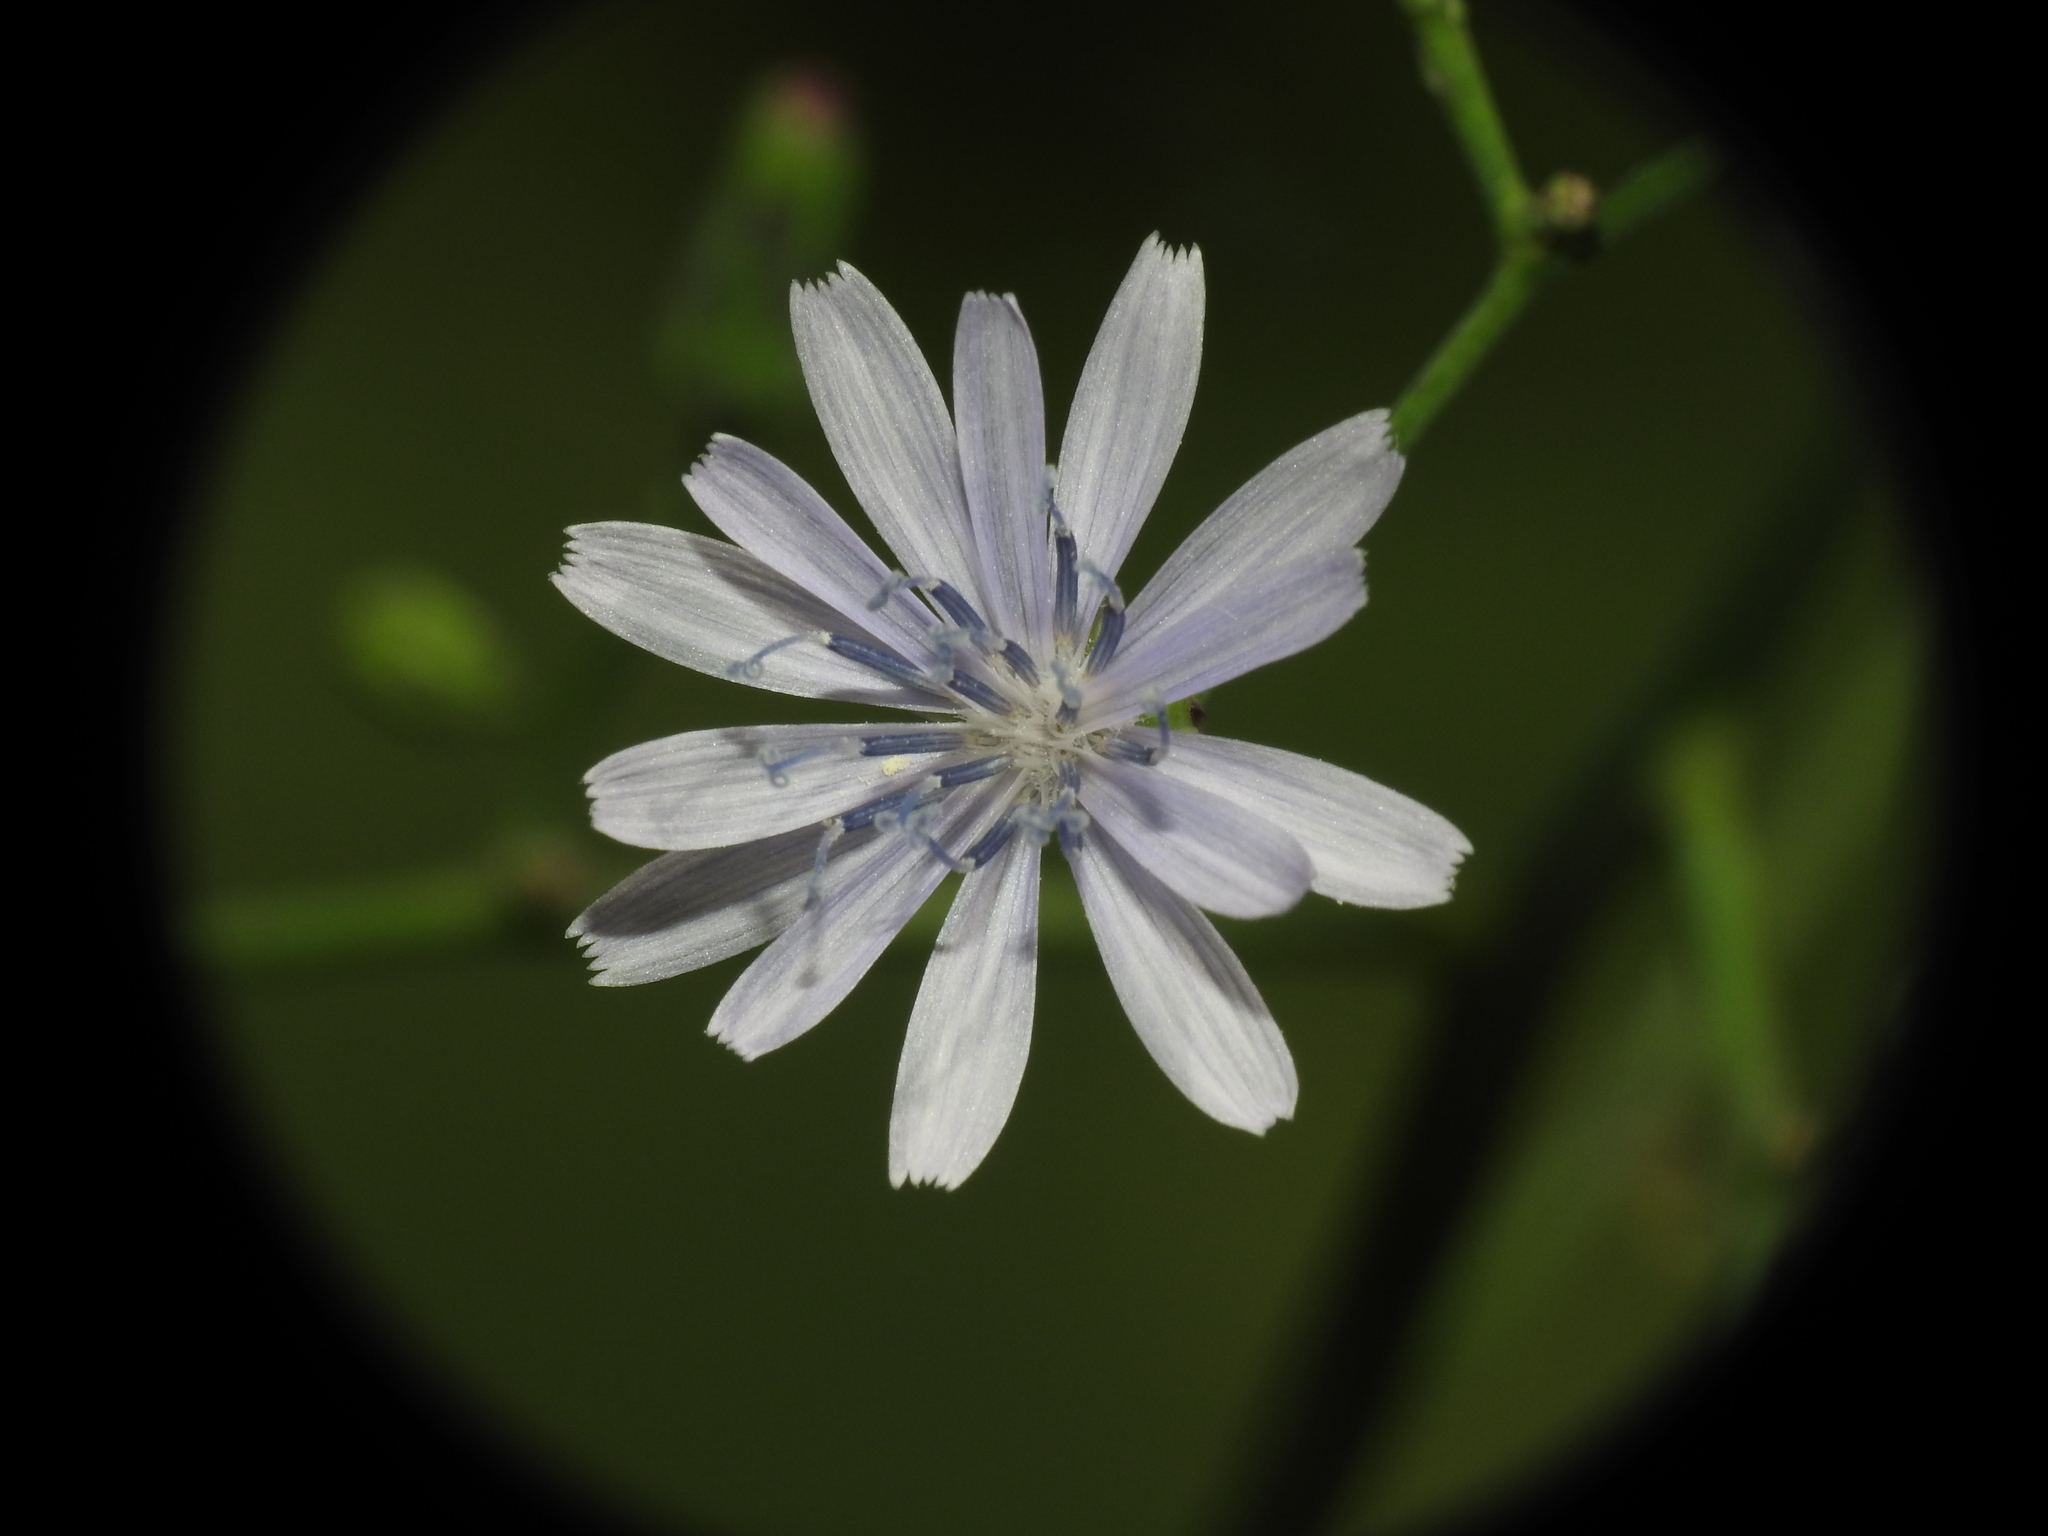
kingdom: Plantae
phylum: Tracheophyta
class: Magnoliopsida
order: Asterales
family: Asteraceae
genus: Cichorium
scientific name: Cichorium intybus
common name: Chicory
